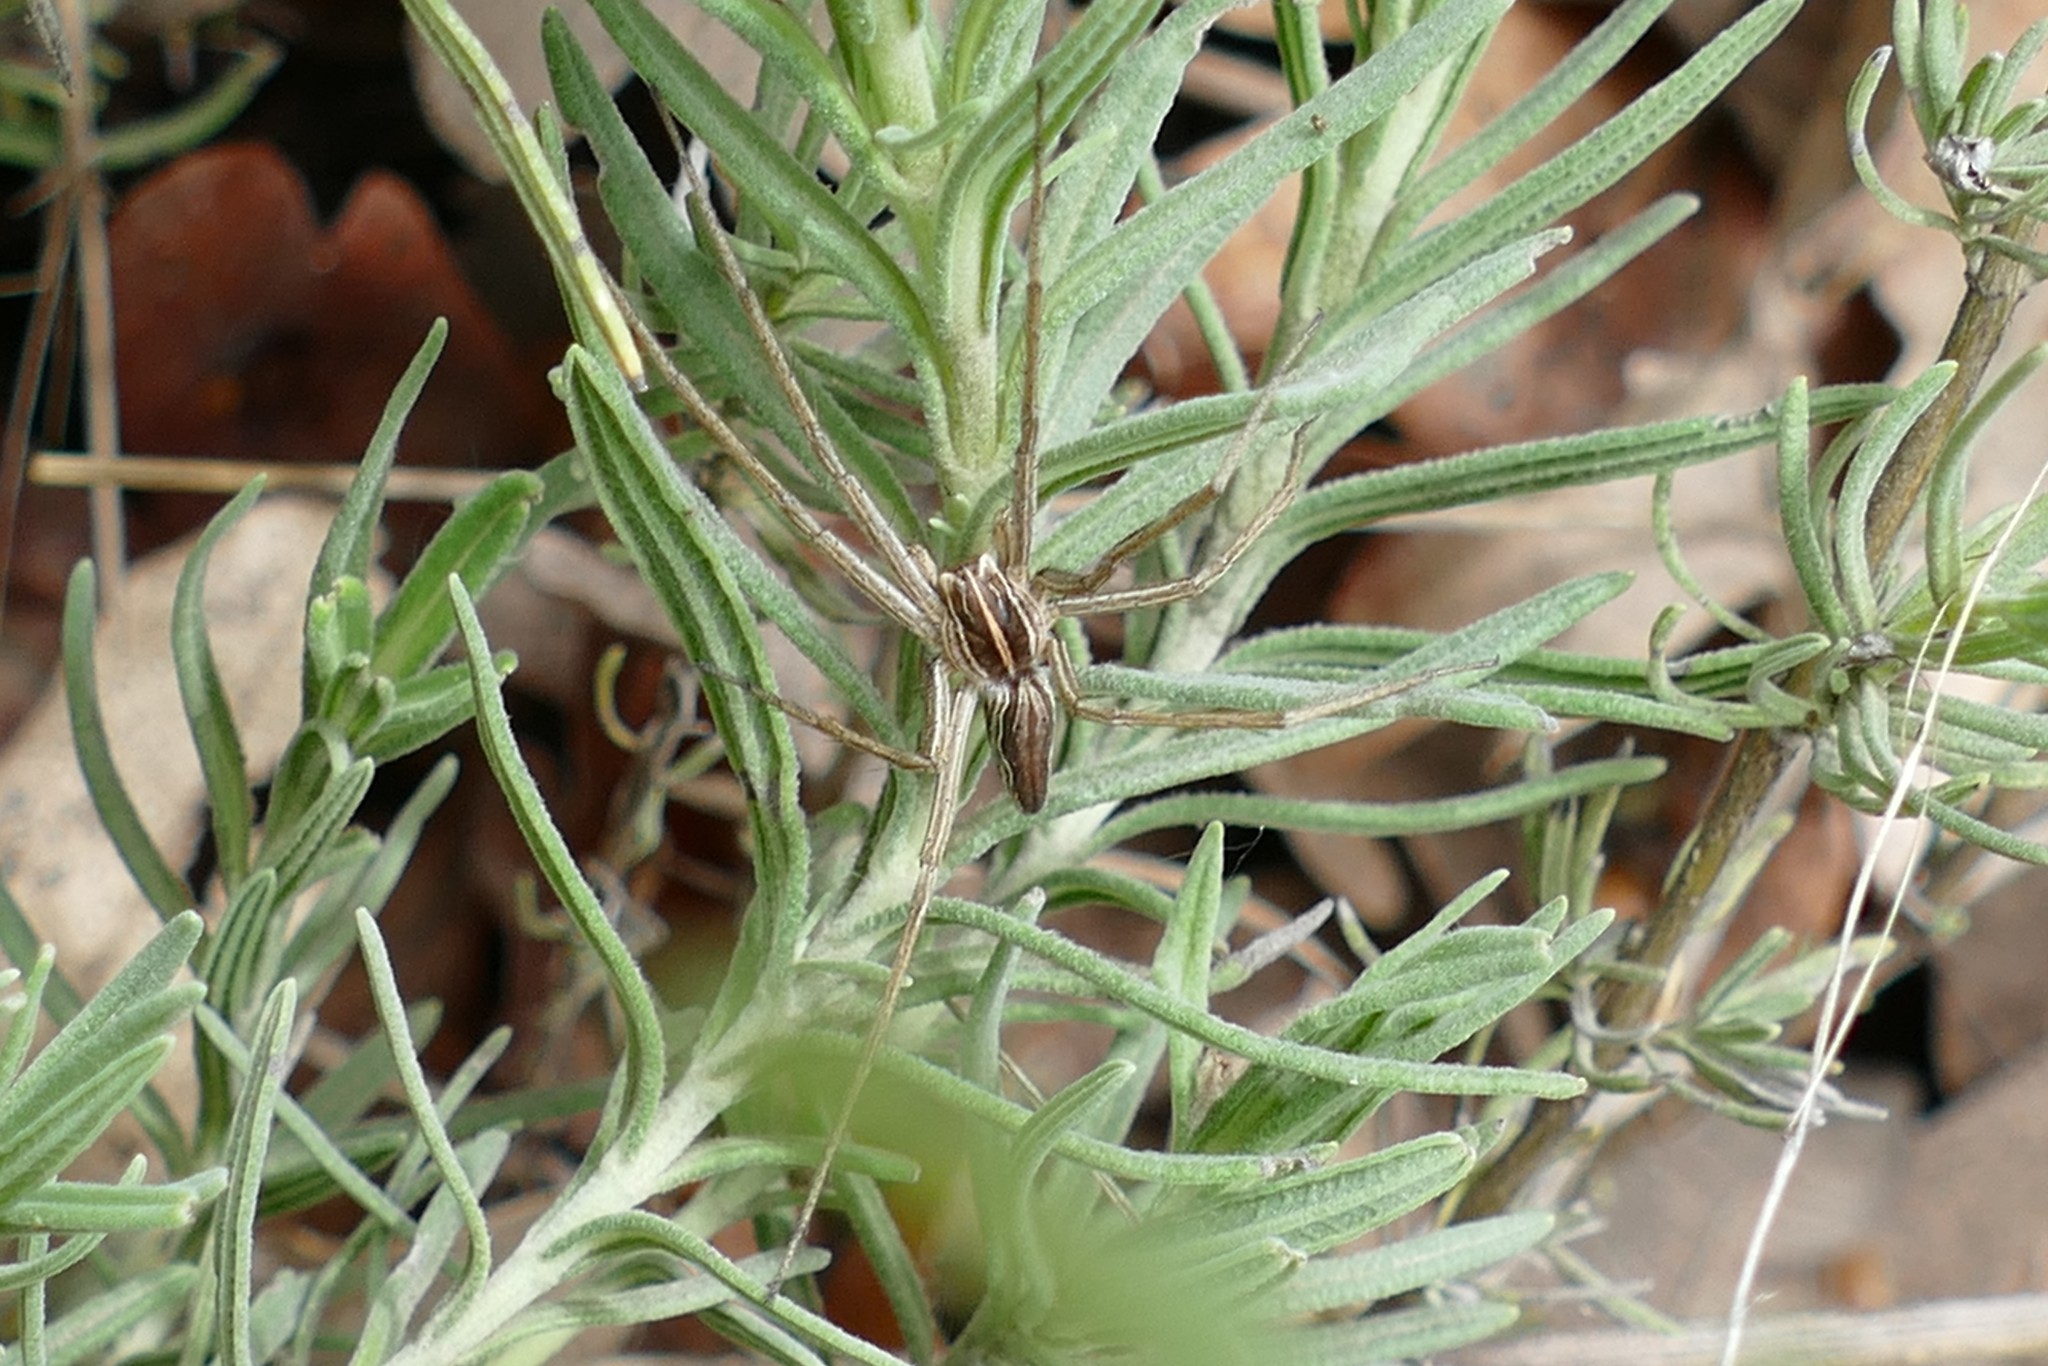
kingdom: Animalia
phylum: Arthropoda
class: Arachnida
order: Araneae
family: Pisauridae
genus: Pisaura
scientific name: Pisaura mirabilis
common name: Tent spider
